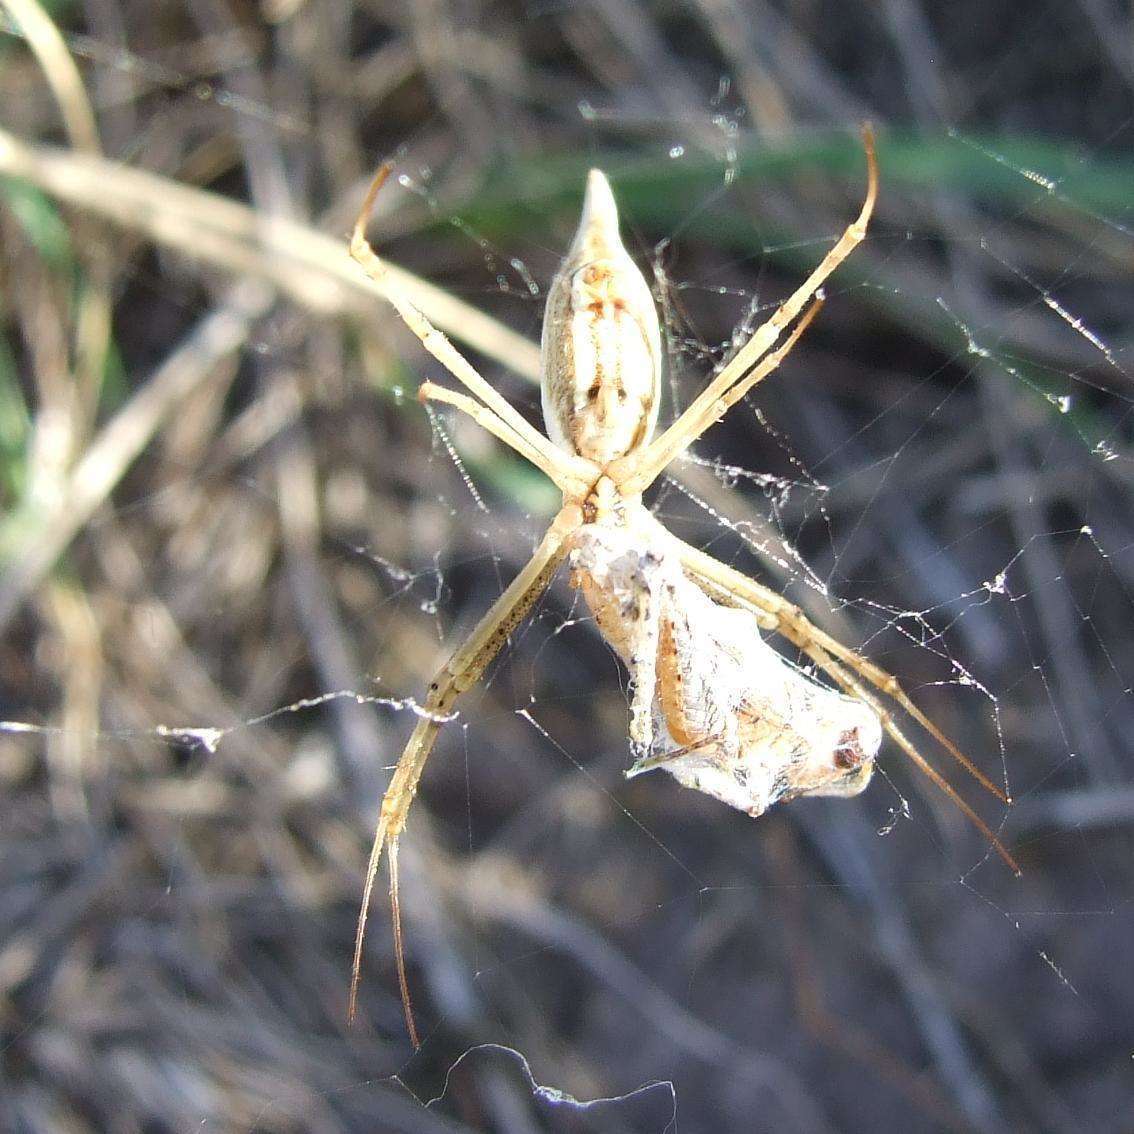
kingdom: Animalia
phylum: Arthropoda
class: Arachnida
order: Araneae
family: Araneidae
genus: Argiope
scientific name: Argiope protensa
